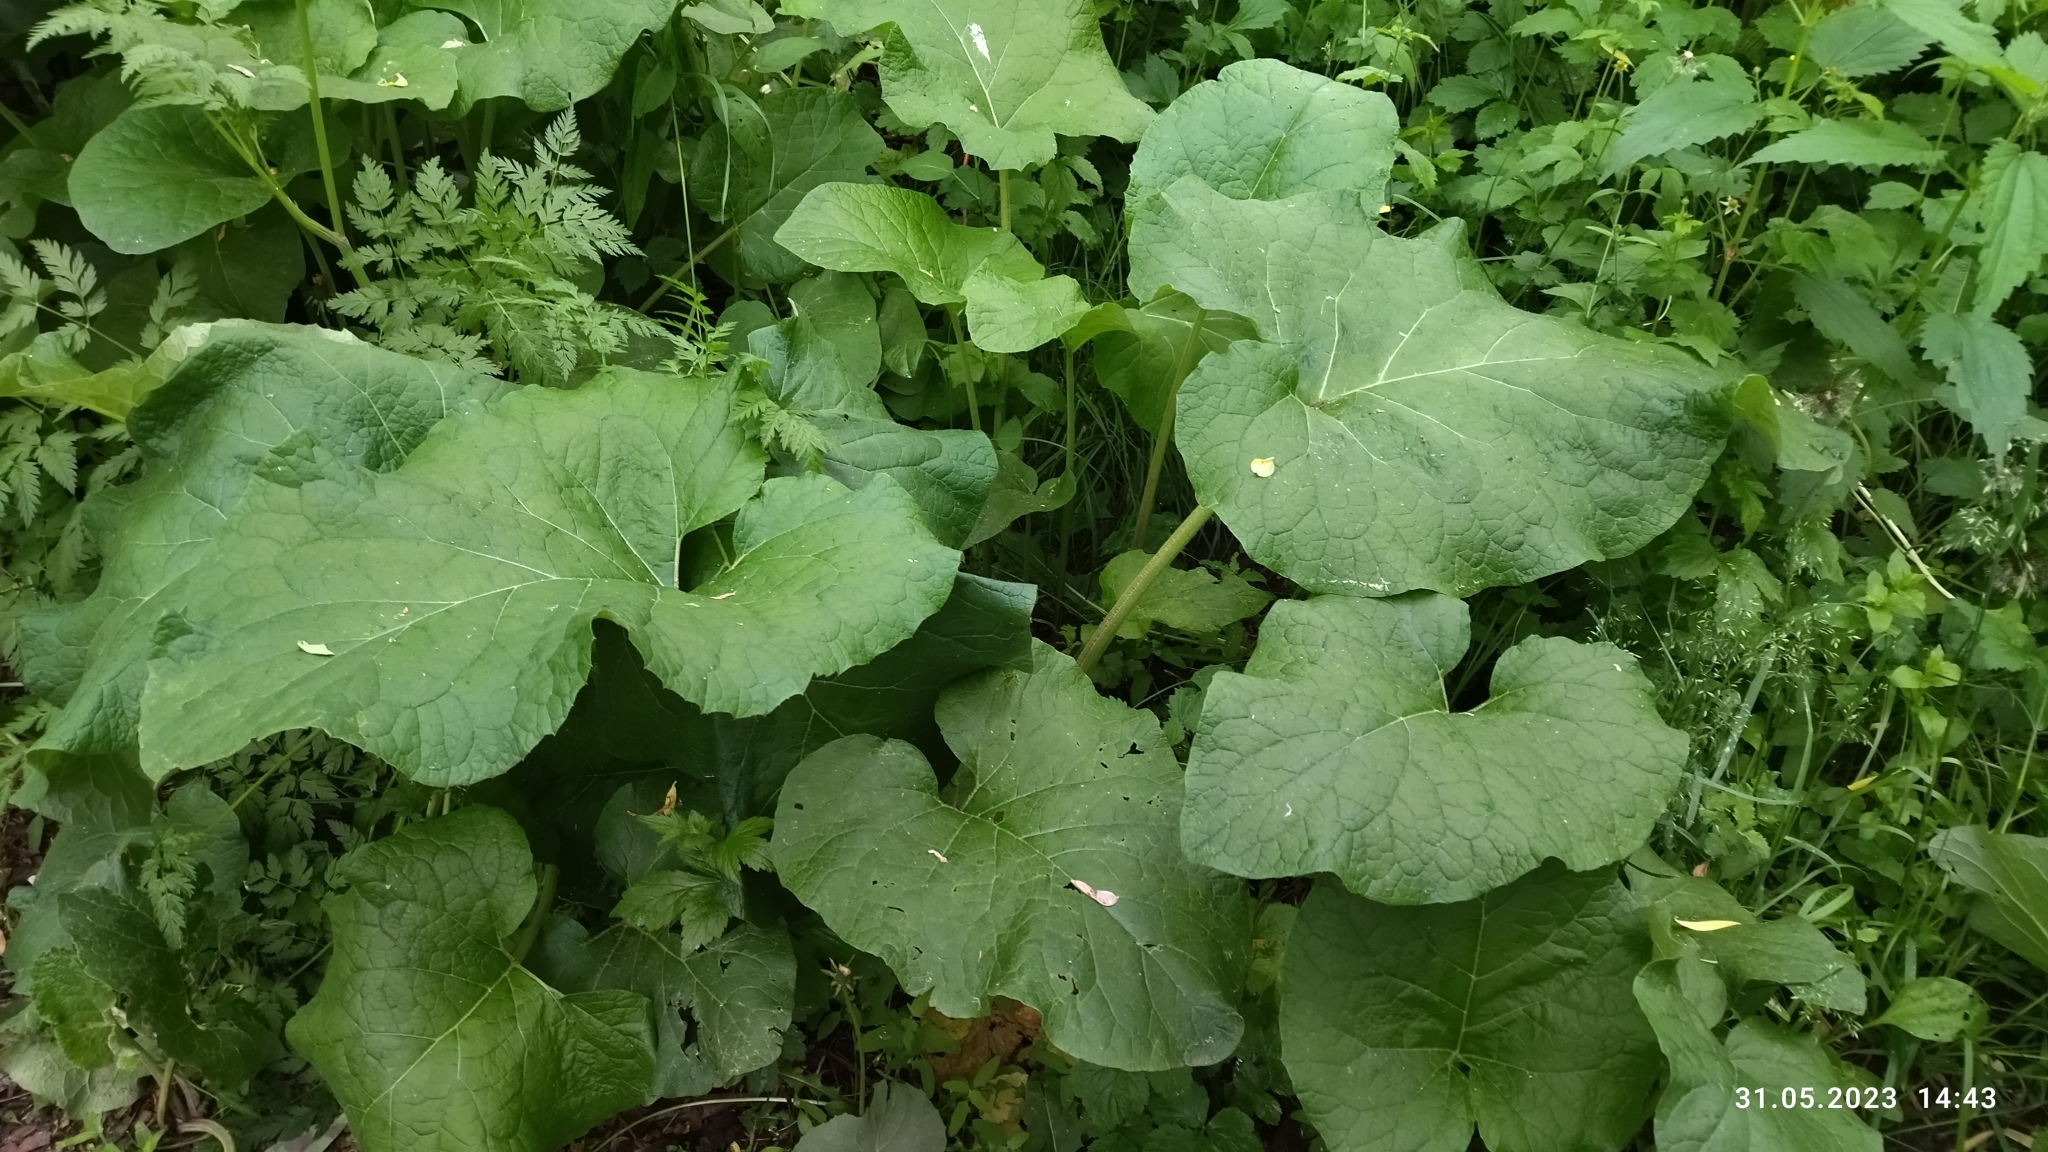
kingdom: Plantae
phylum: Tracheophyta
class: Magnoliopsida
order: Asterales
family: Asteraceae
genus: Arctium
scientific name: Arctium
